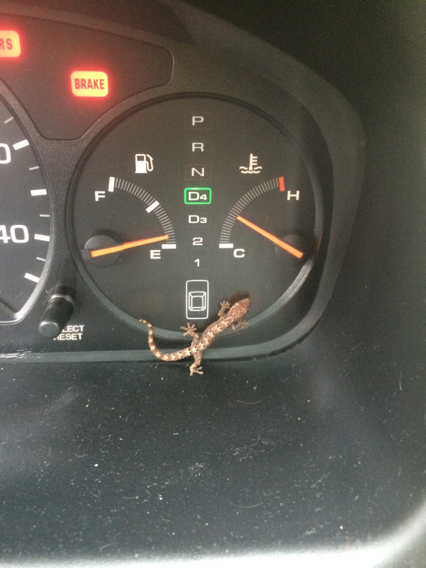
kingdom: Animalia
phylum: Chordata
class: Squamata
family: Gekkonidae
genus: Lepidodactylus
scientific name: Lepidodactylus lugubris
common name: Mourning gecko
